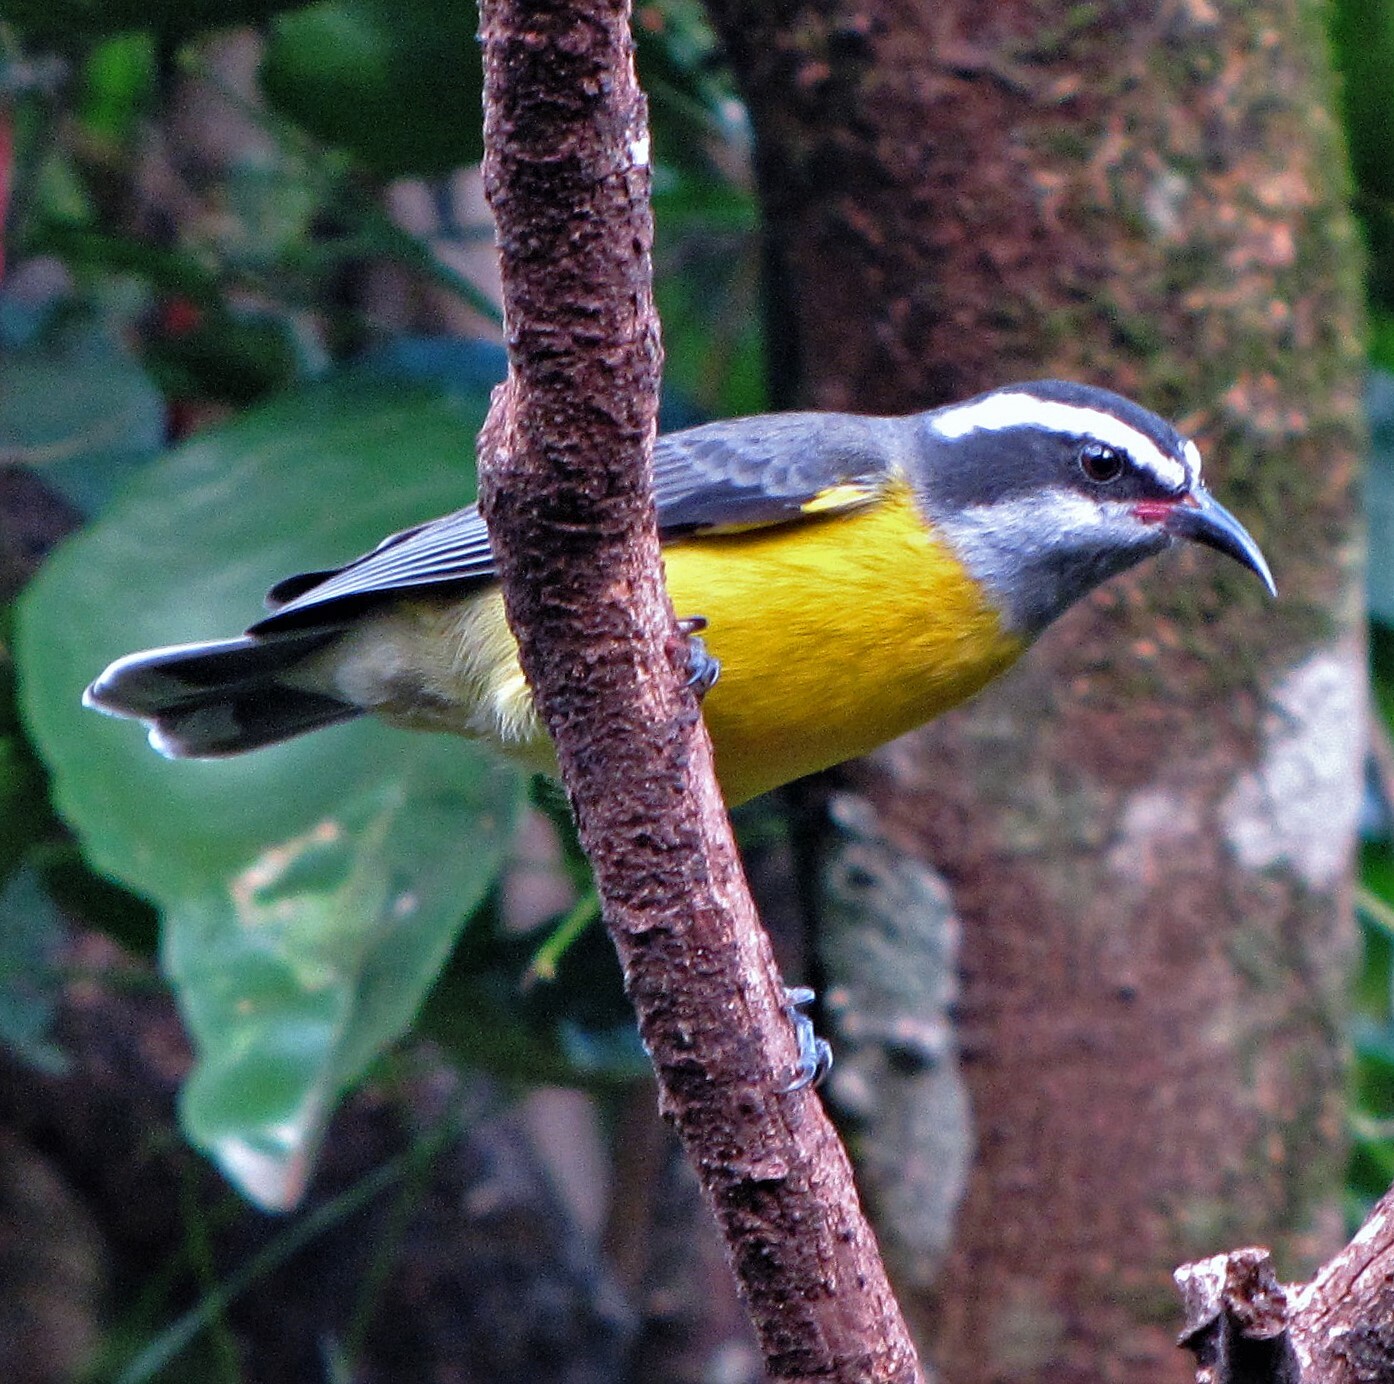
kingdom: Animalia
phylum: Chordata
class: Aves
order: Passeriformes
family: Thraupidae
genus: Coereba
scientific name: Coereba flaveola
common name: Bananaquit
